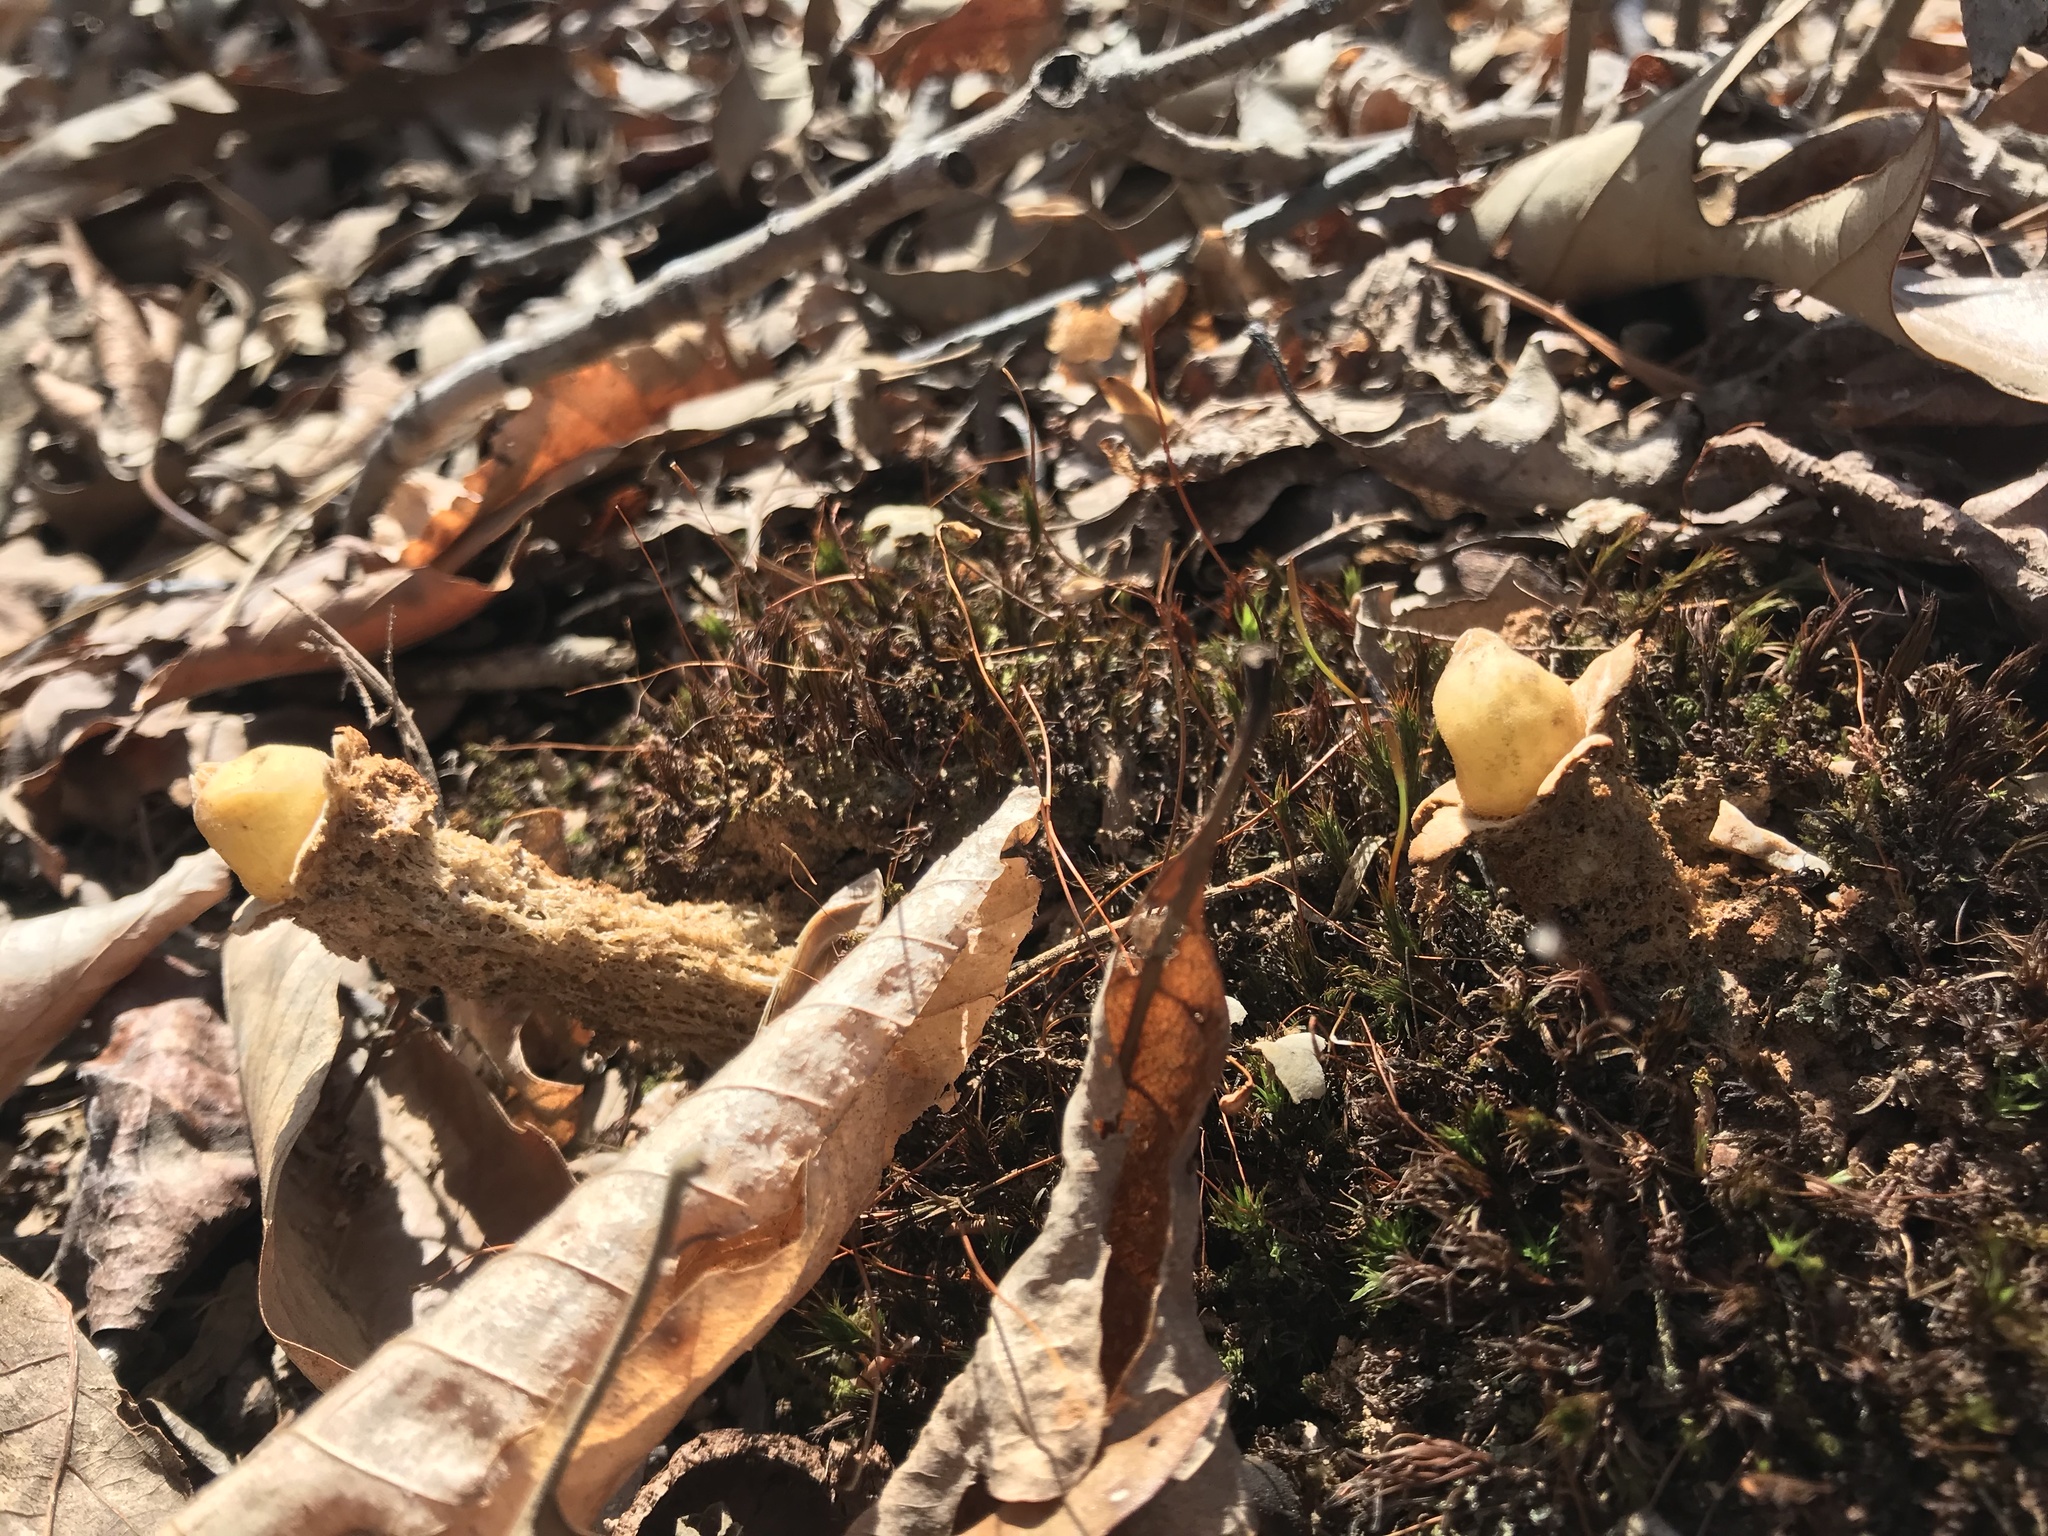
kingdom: Fungi
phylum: Basidiomycota
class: Agaricomycetes
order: Boletales
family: Calostomataceae
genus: Calostoma
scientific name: Calostoma lutescens
